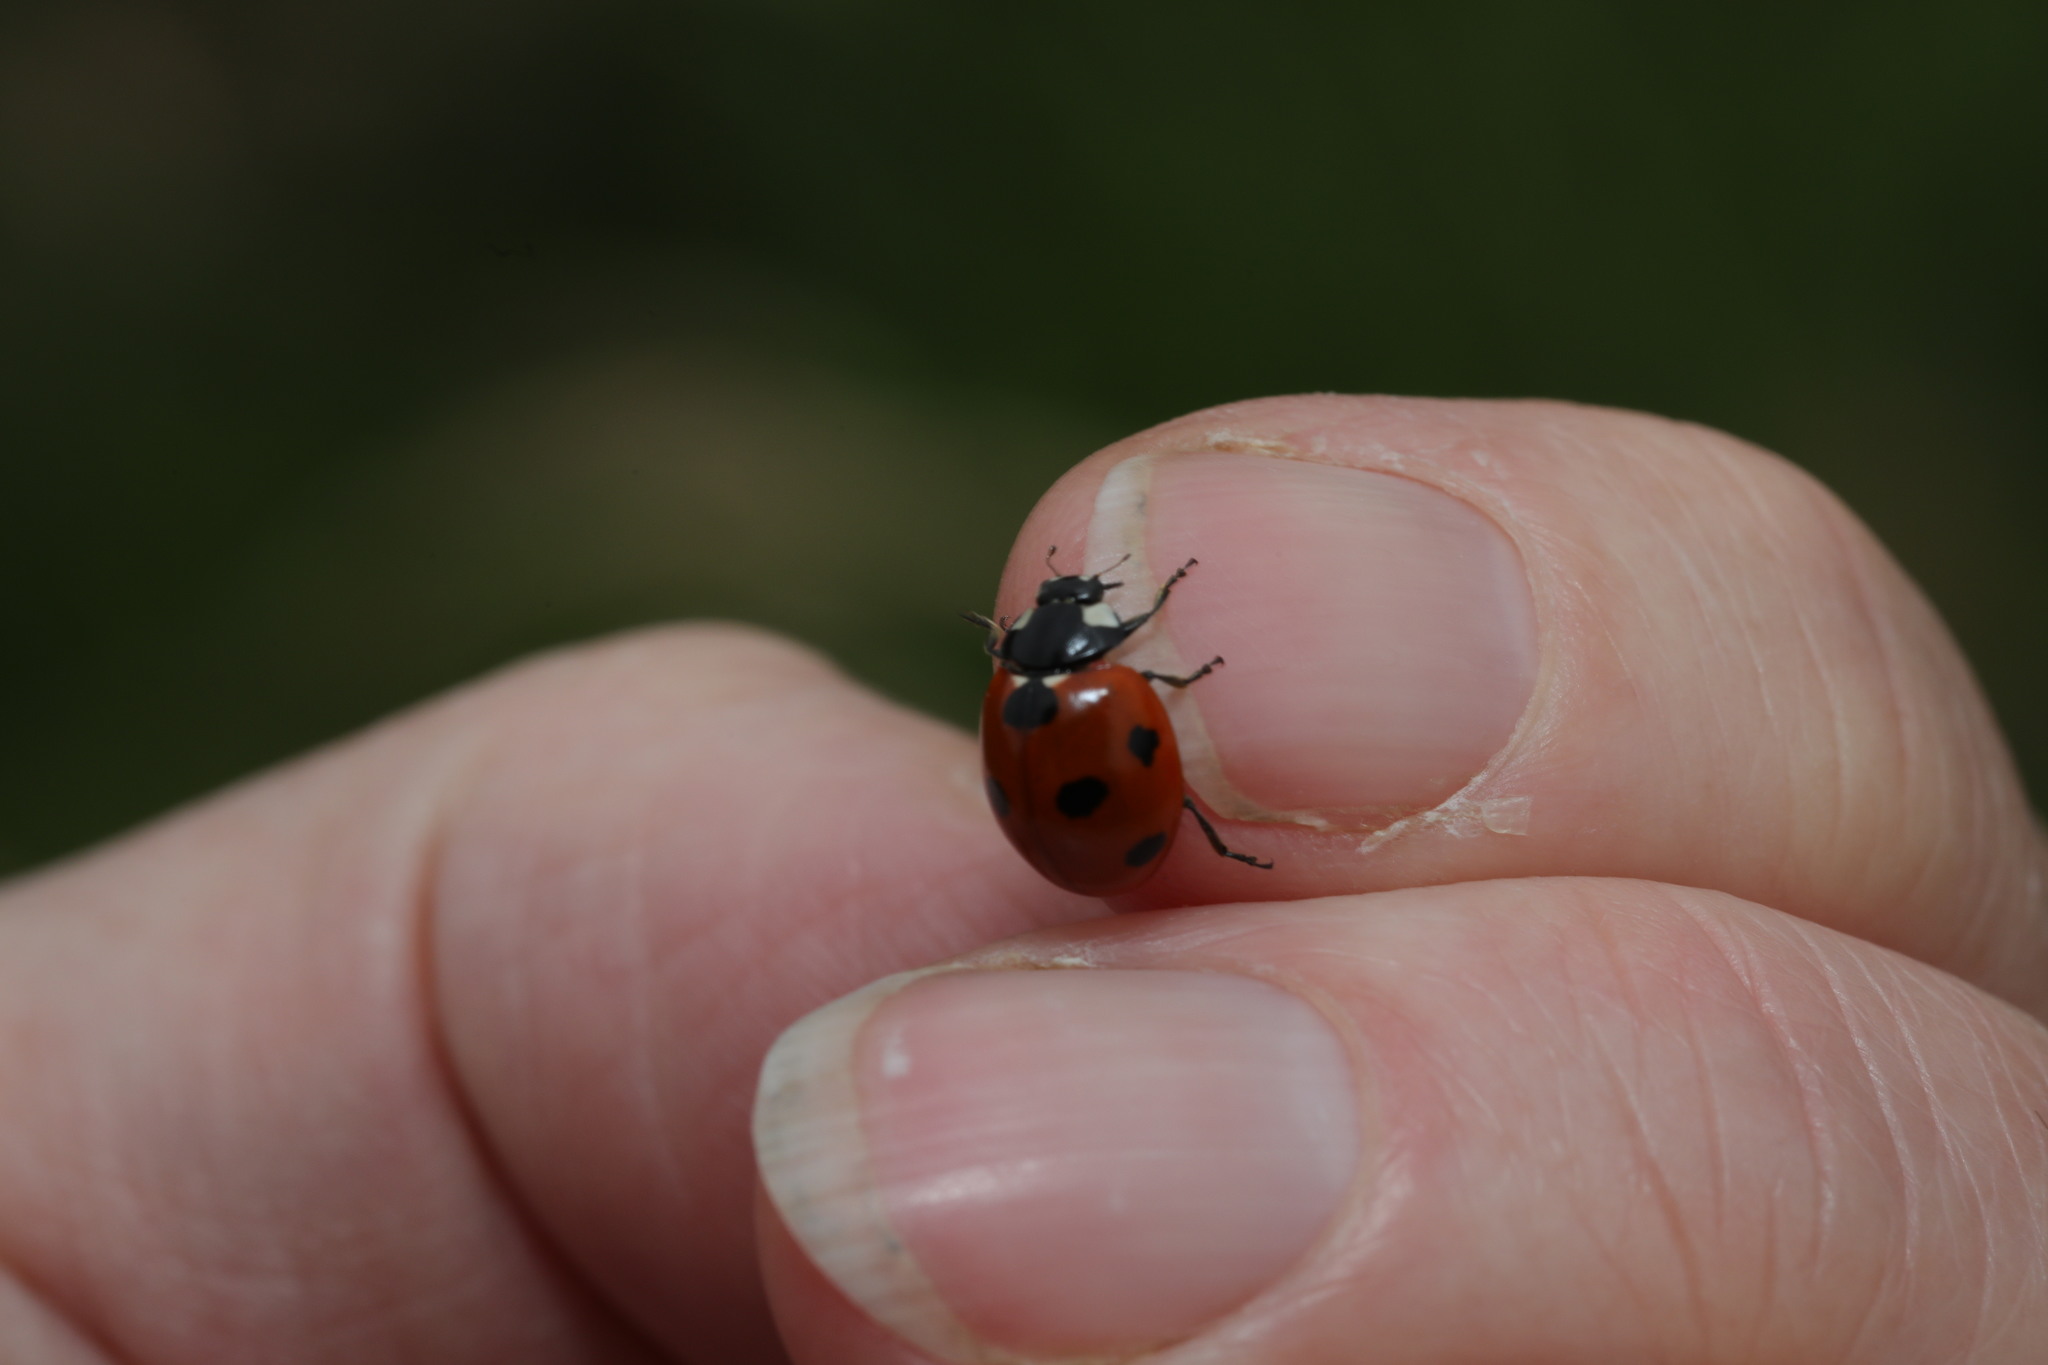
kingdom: Animalia
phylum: Arthropoda
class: Insecta
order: Coleoptera
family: Coccinellidae
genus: Coccinella
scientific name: Coccinella septempunctata
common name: Sevenspotted lady beetle
